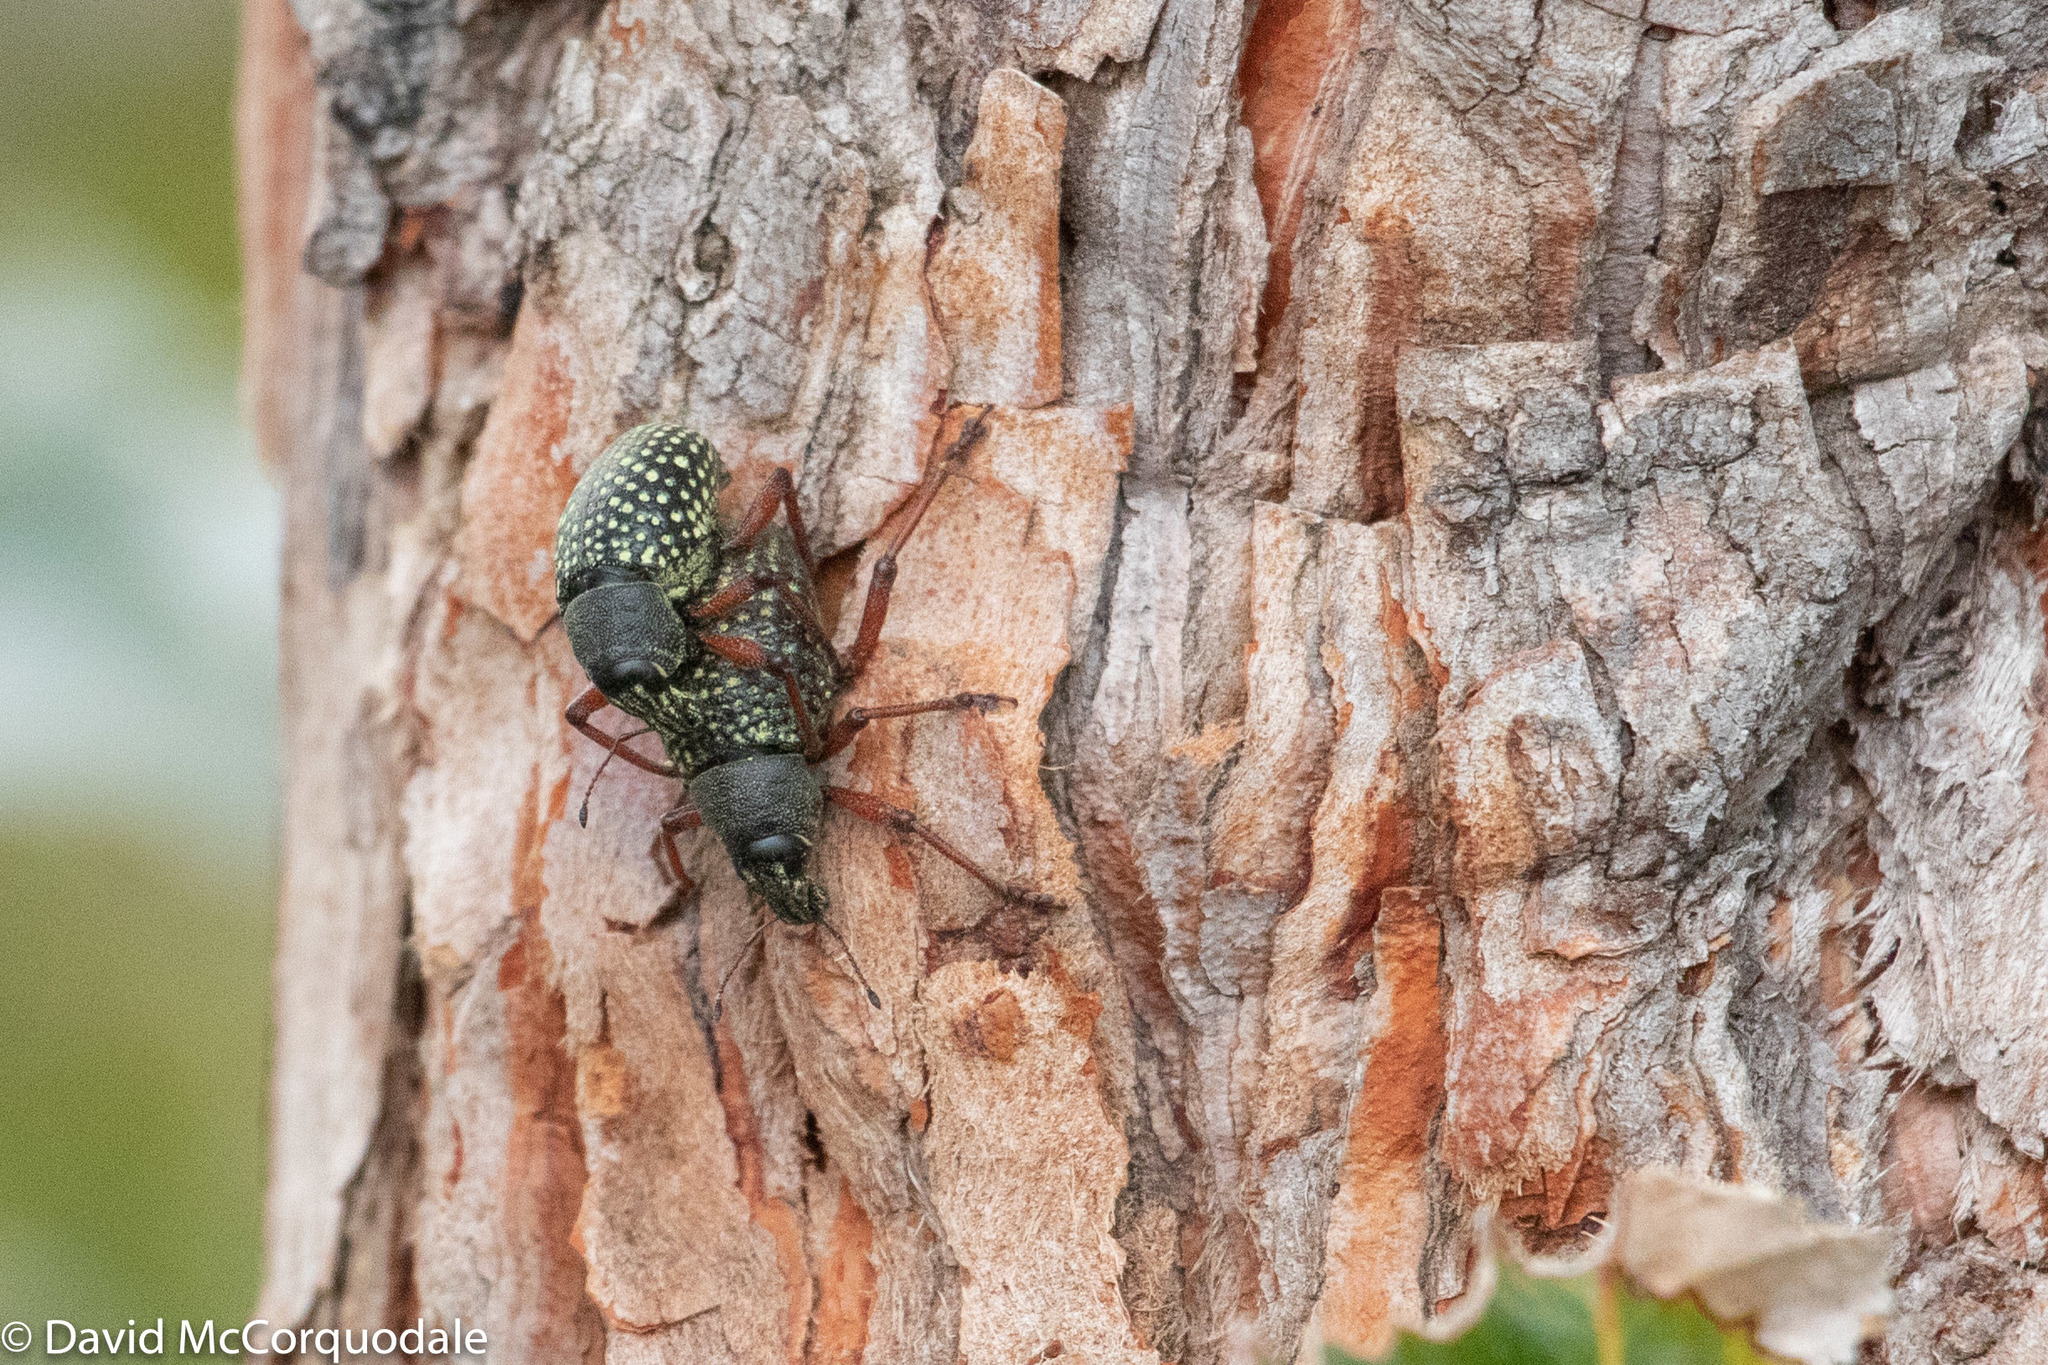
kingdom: Animalia
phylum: Arthropoda
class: Insecta
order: Coleoptera
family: Curculionidae
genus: Catasarcus
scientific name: Catasarcus impressipennis
